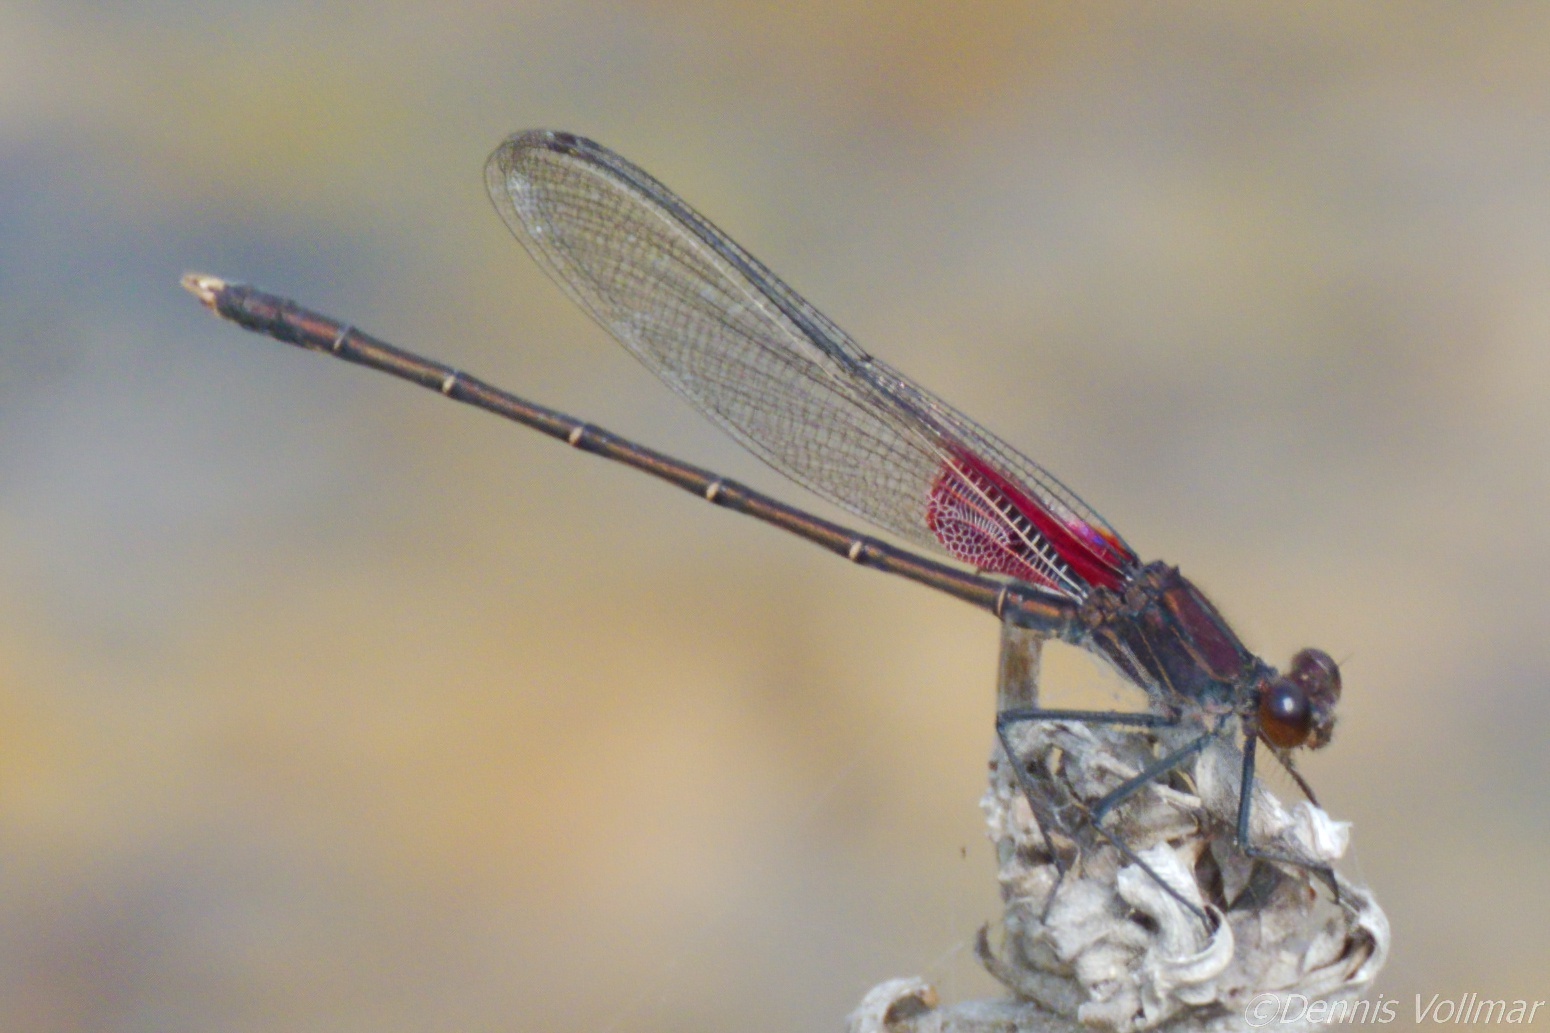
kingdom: Animalia
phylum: Arthropoda
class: Insecta
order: Odonata
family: Calopterygidae
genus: Hetaerina
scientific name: Hetaerina americana
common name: American rubyspot
